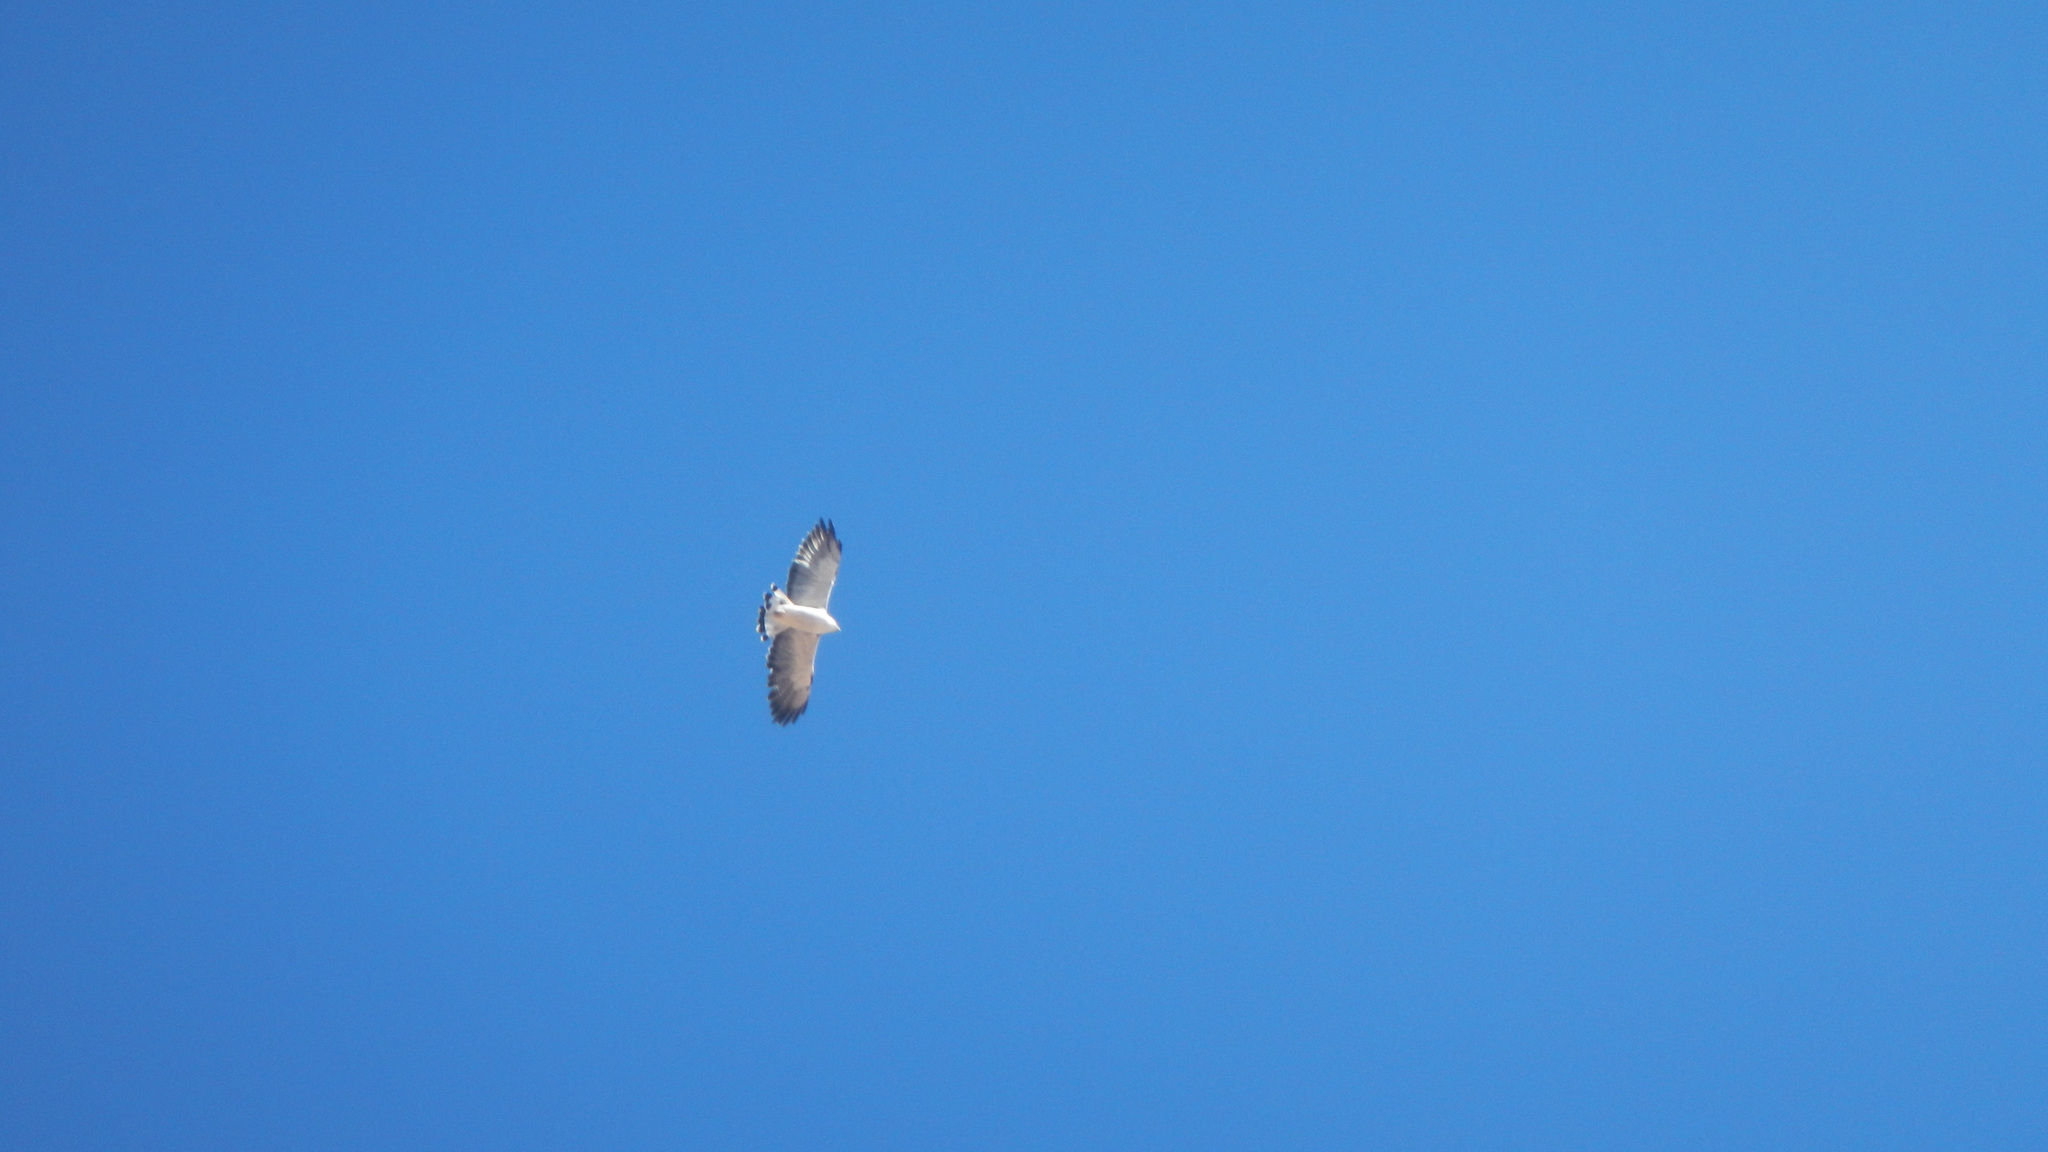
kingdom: Animalia
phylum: Chordata
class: Aves
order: Accipitriformes
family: Accipitridae
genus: Buteo
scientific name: Buteo polyosoma
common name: Variable hawk
